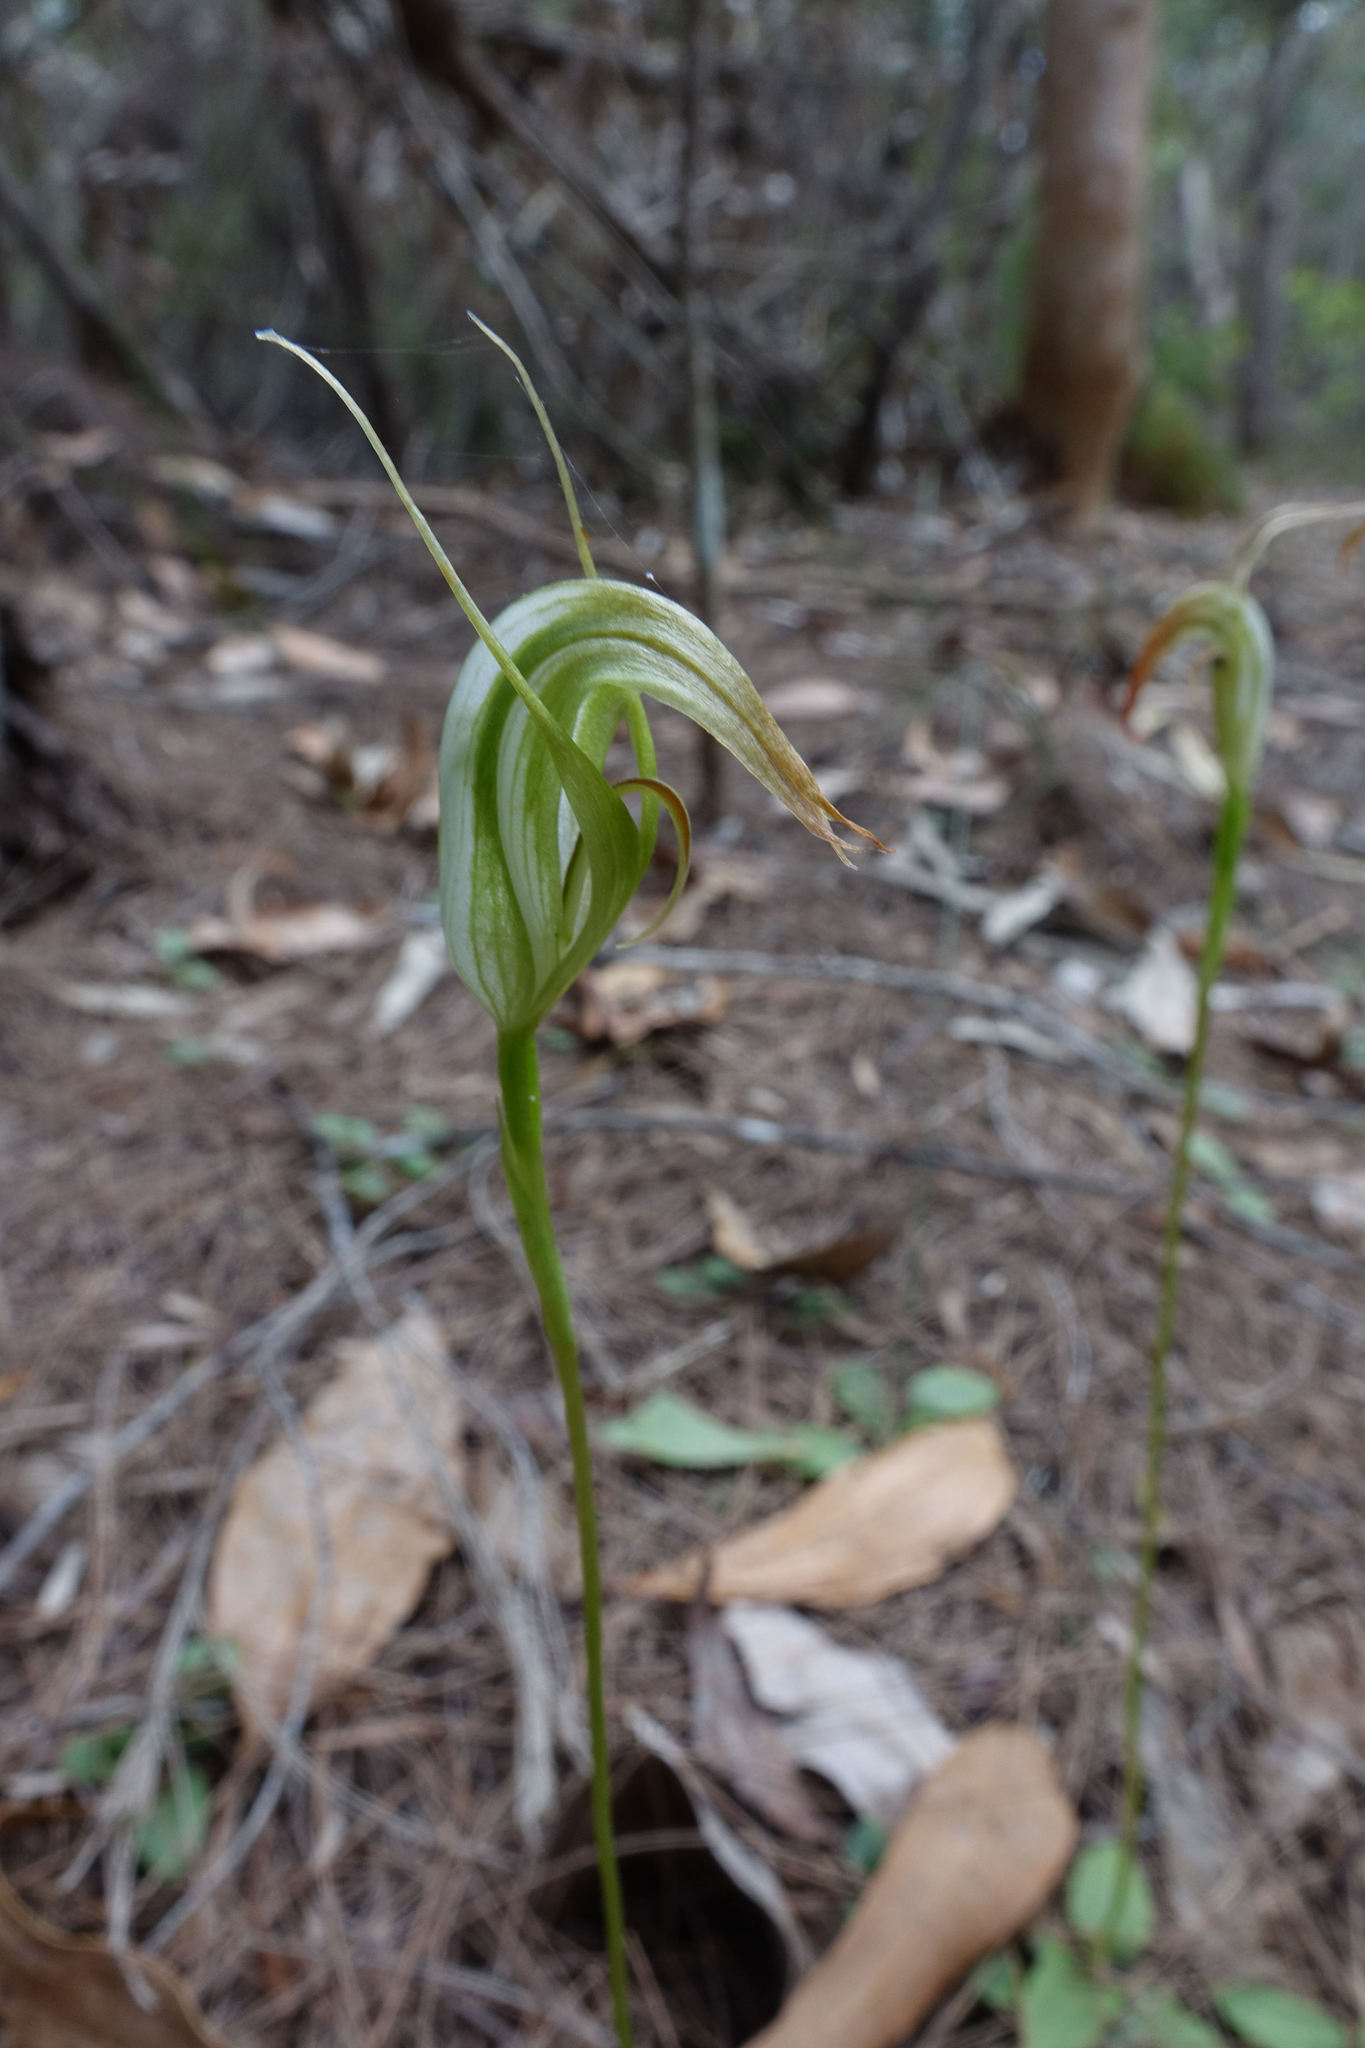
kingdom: Plantae
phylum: Tracheophyta
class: Liliopsida
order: Asparagales
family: Orchidaceae
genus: Pterostylis
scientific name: Pterostylis acuminata
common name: Pointed greenhood
